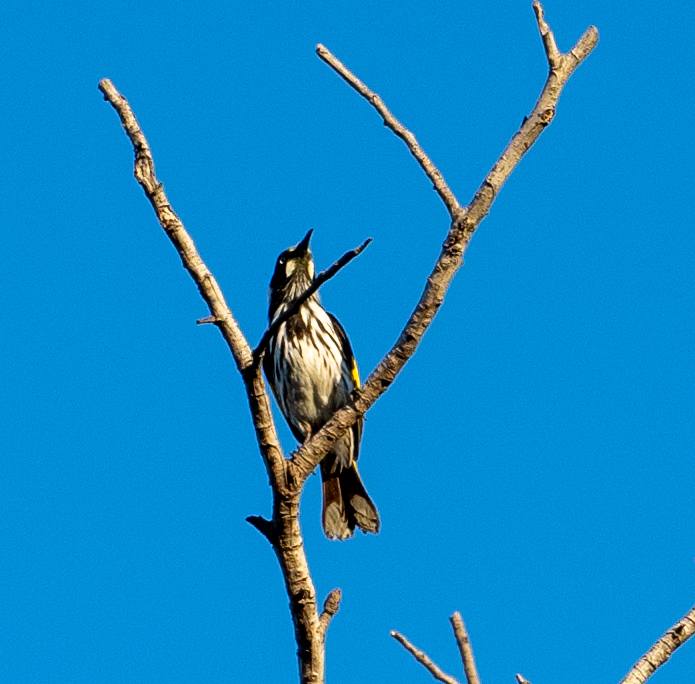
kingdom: Animalia
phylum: Chordata
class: Aves
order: Passeriformes
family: Meliphagidae
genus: Phylidonyris
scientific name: Phylidonyris novaehollandiae
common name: New holland honeyeater
